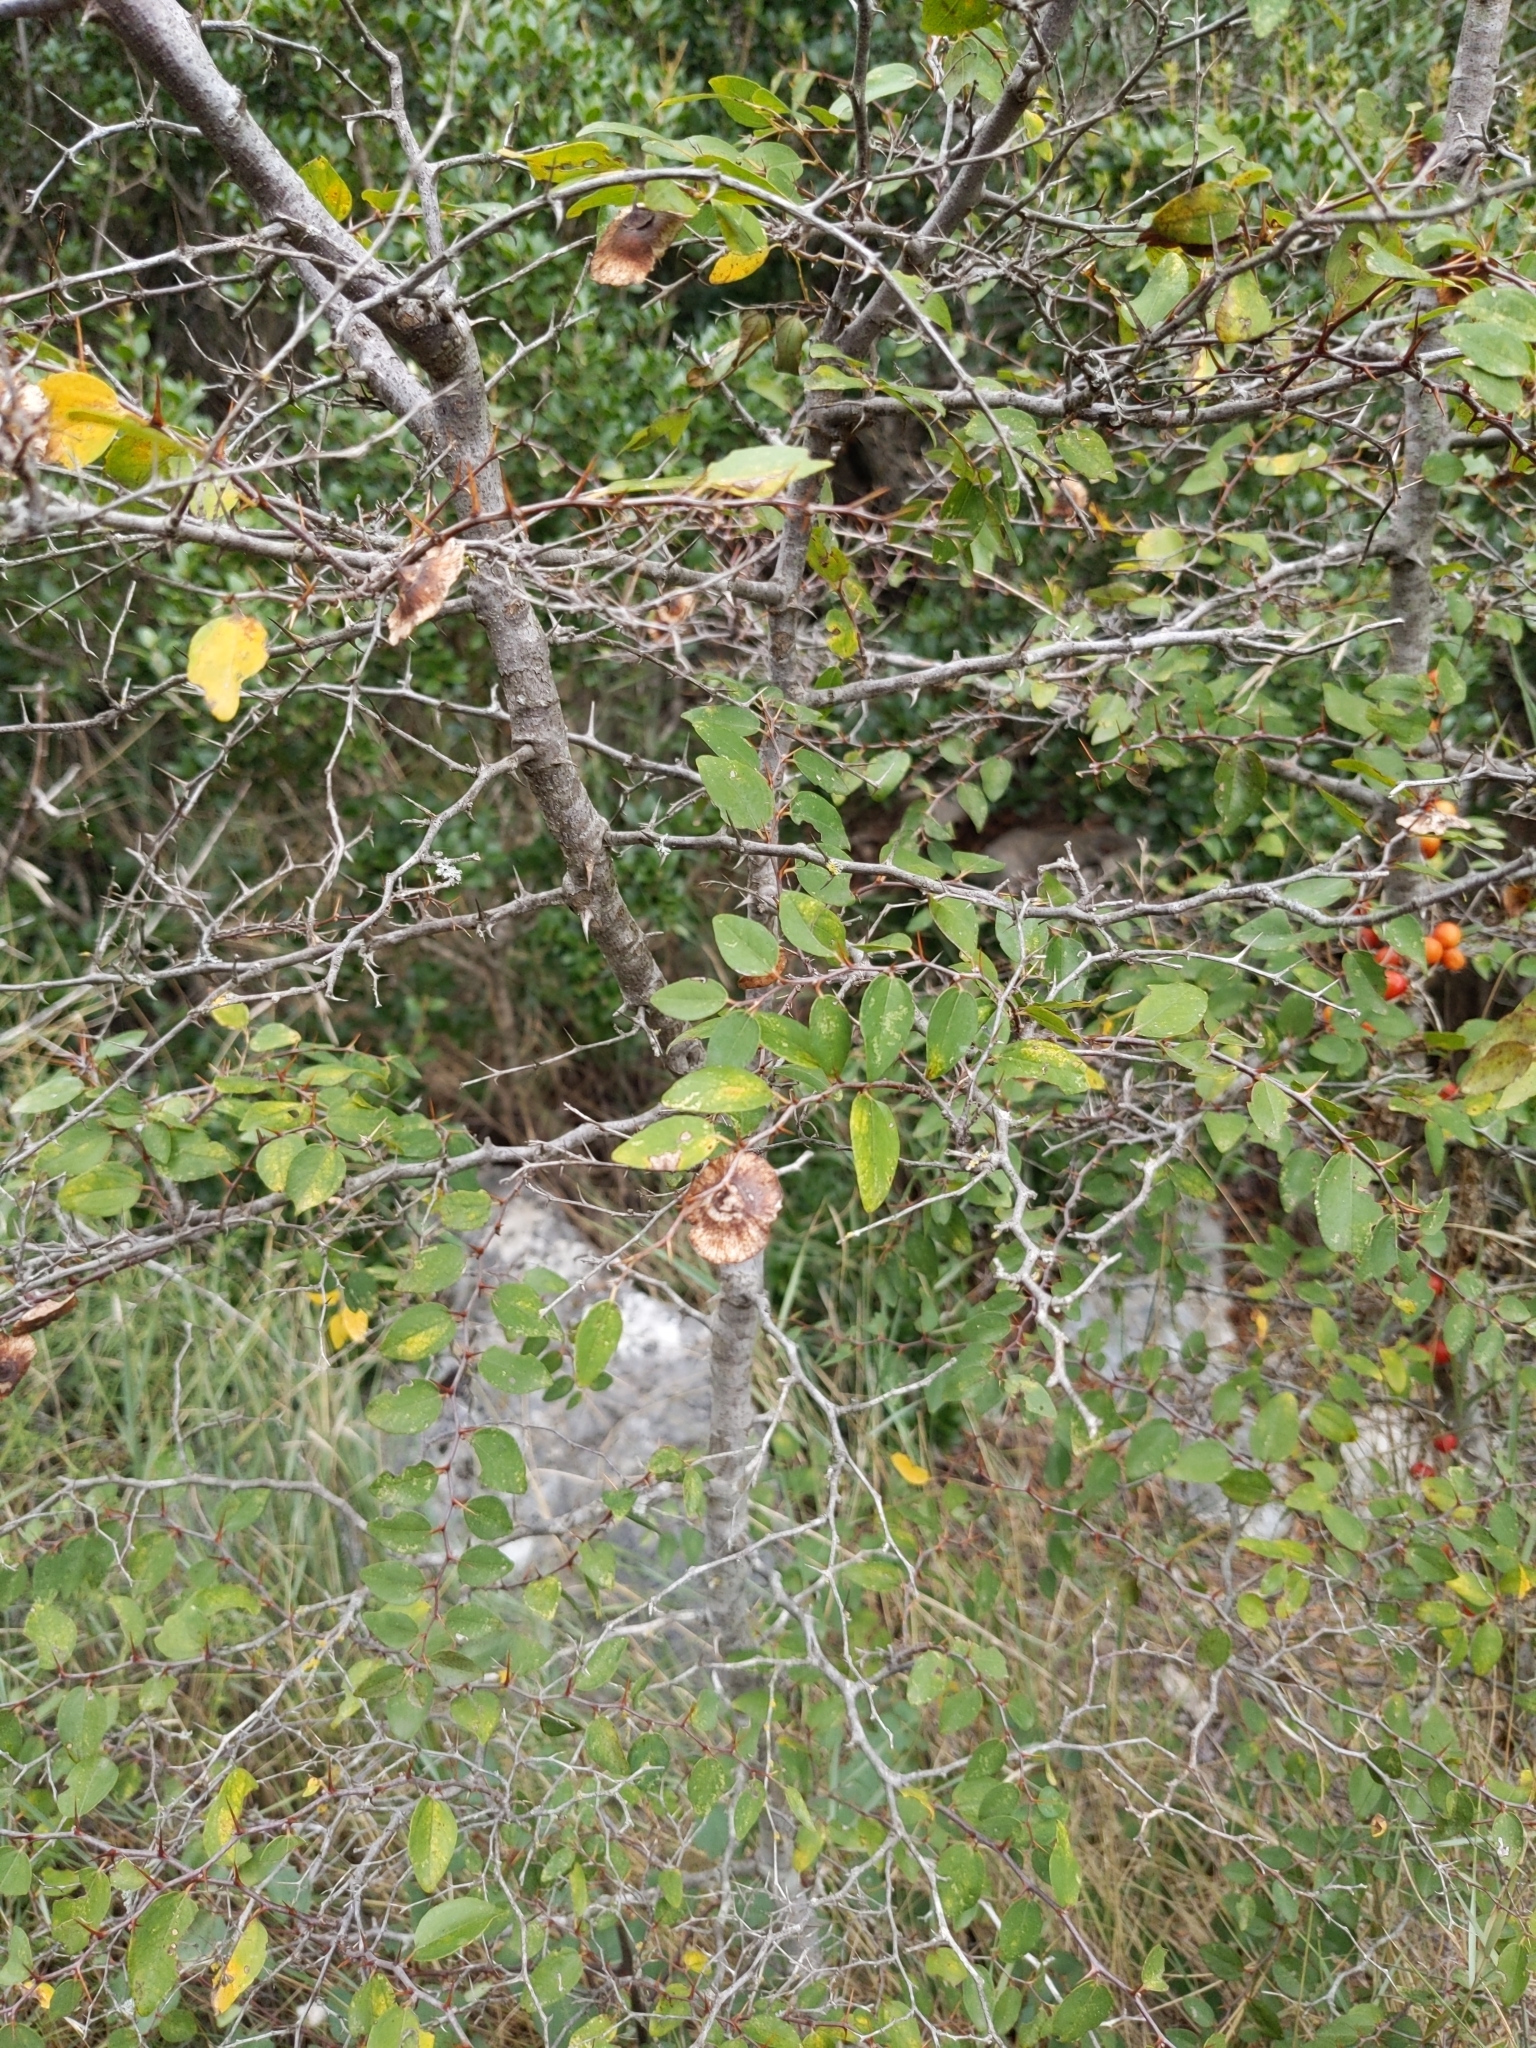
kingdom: Plantae
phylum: Tracheophyta
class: Magnoliopsida
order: Rosales
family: Rhamnaceae
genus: Paliurus
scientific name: Paliurus spina-christi
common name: Jeruselem thorn
